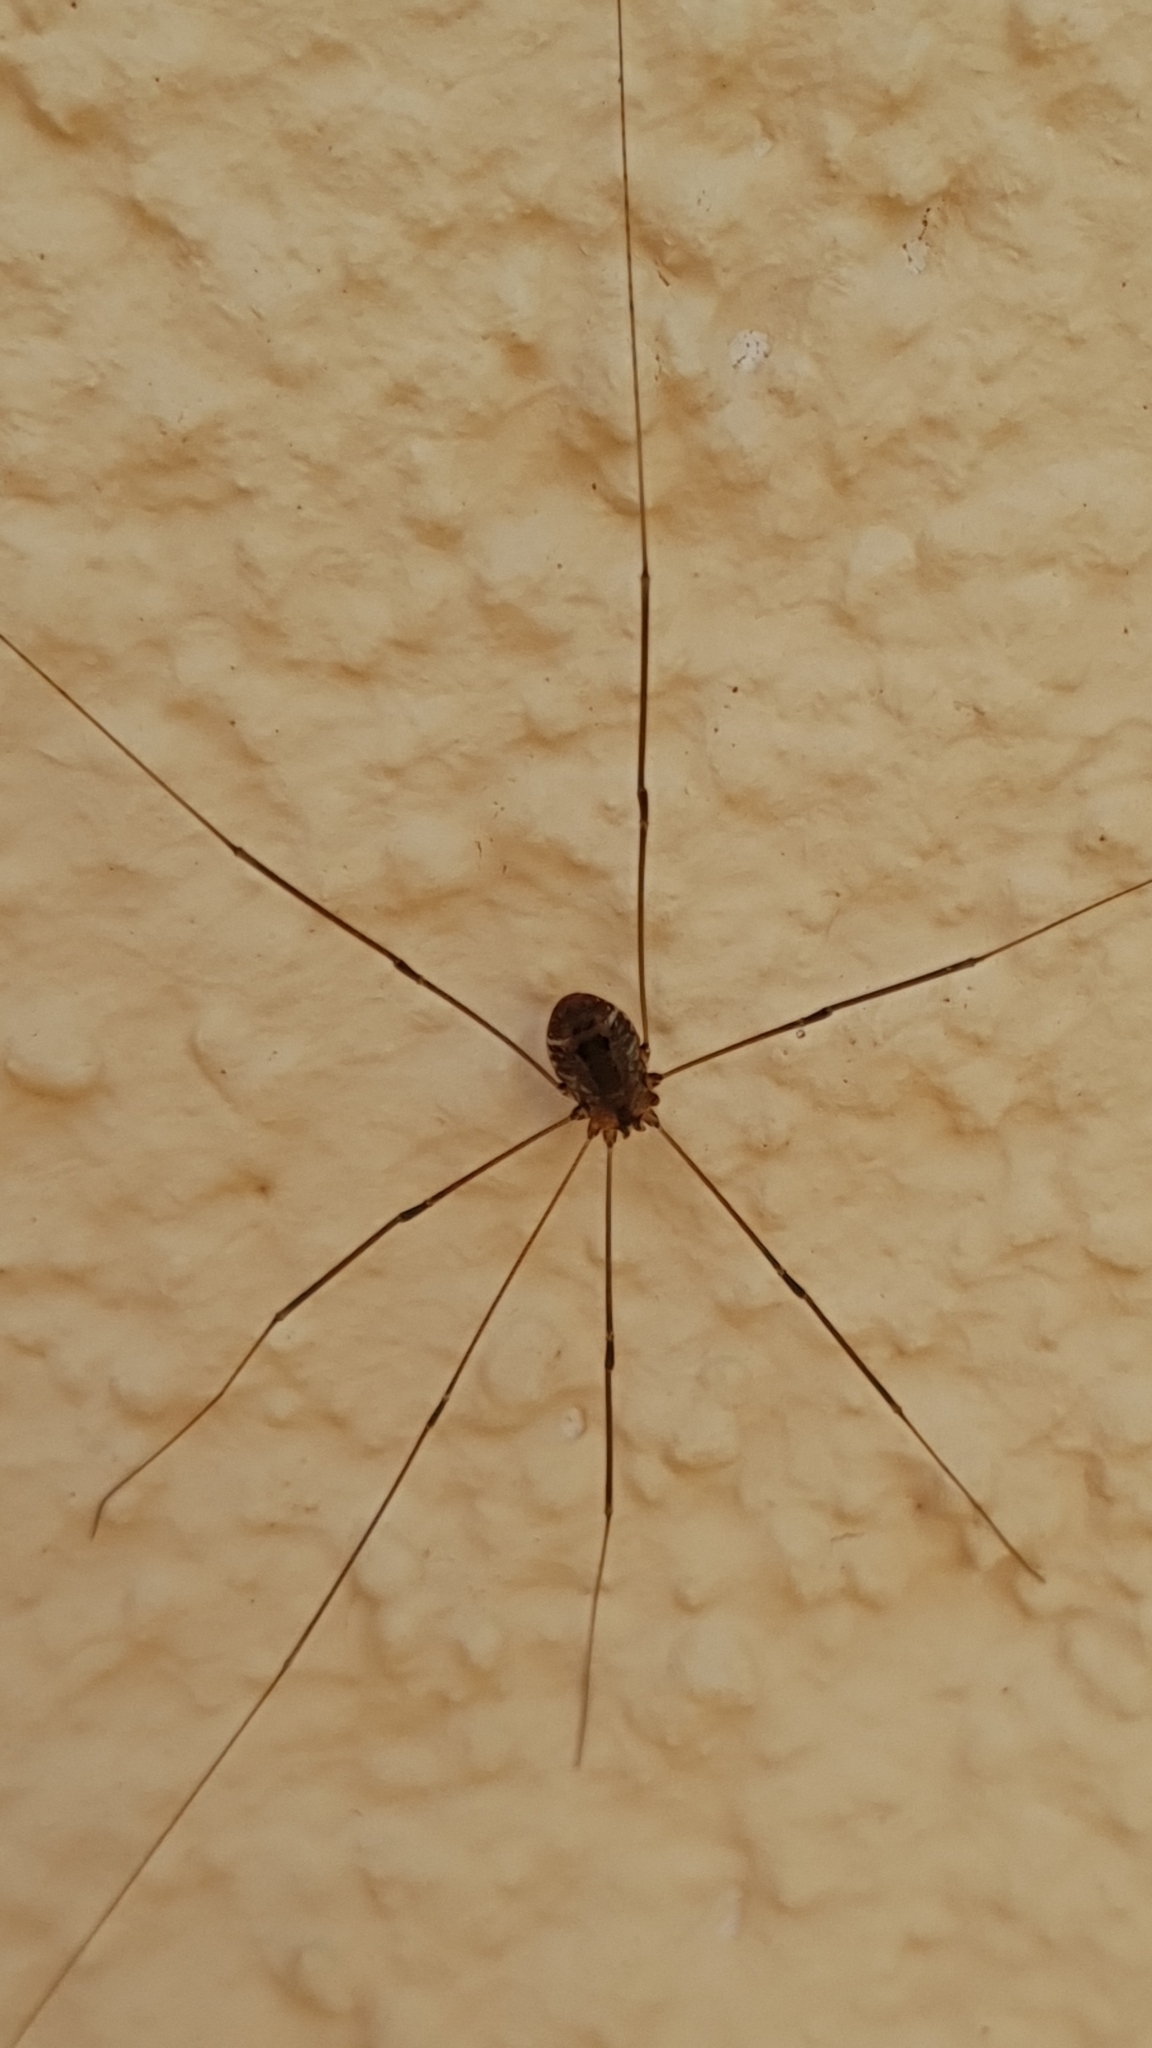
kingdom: Animalia
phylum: Arthropoda
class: Arachnida
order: Opiliones
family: Sclerosomatidae
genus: Leiobunum
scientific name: Leiobunum rotundum
